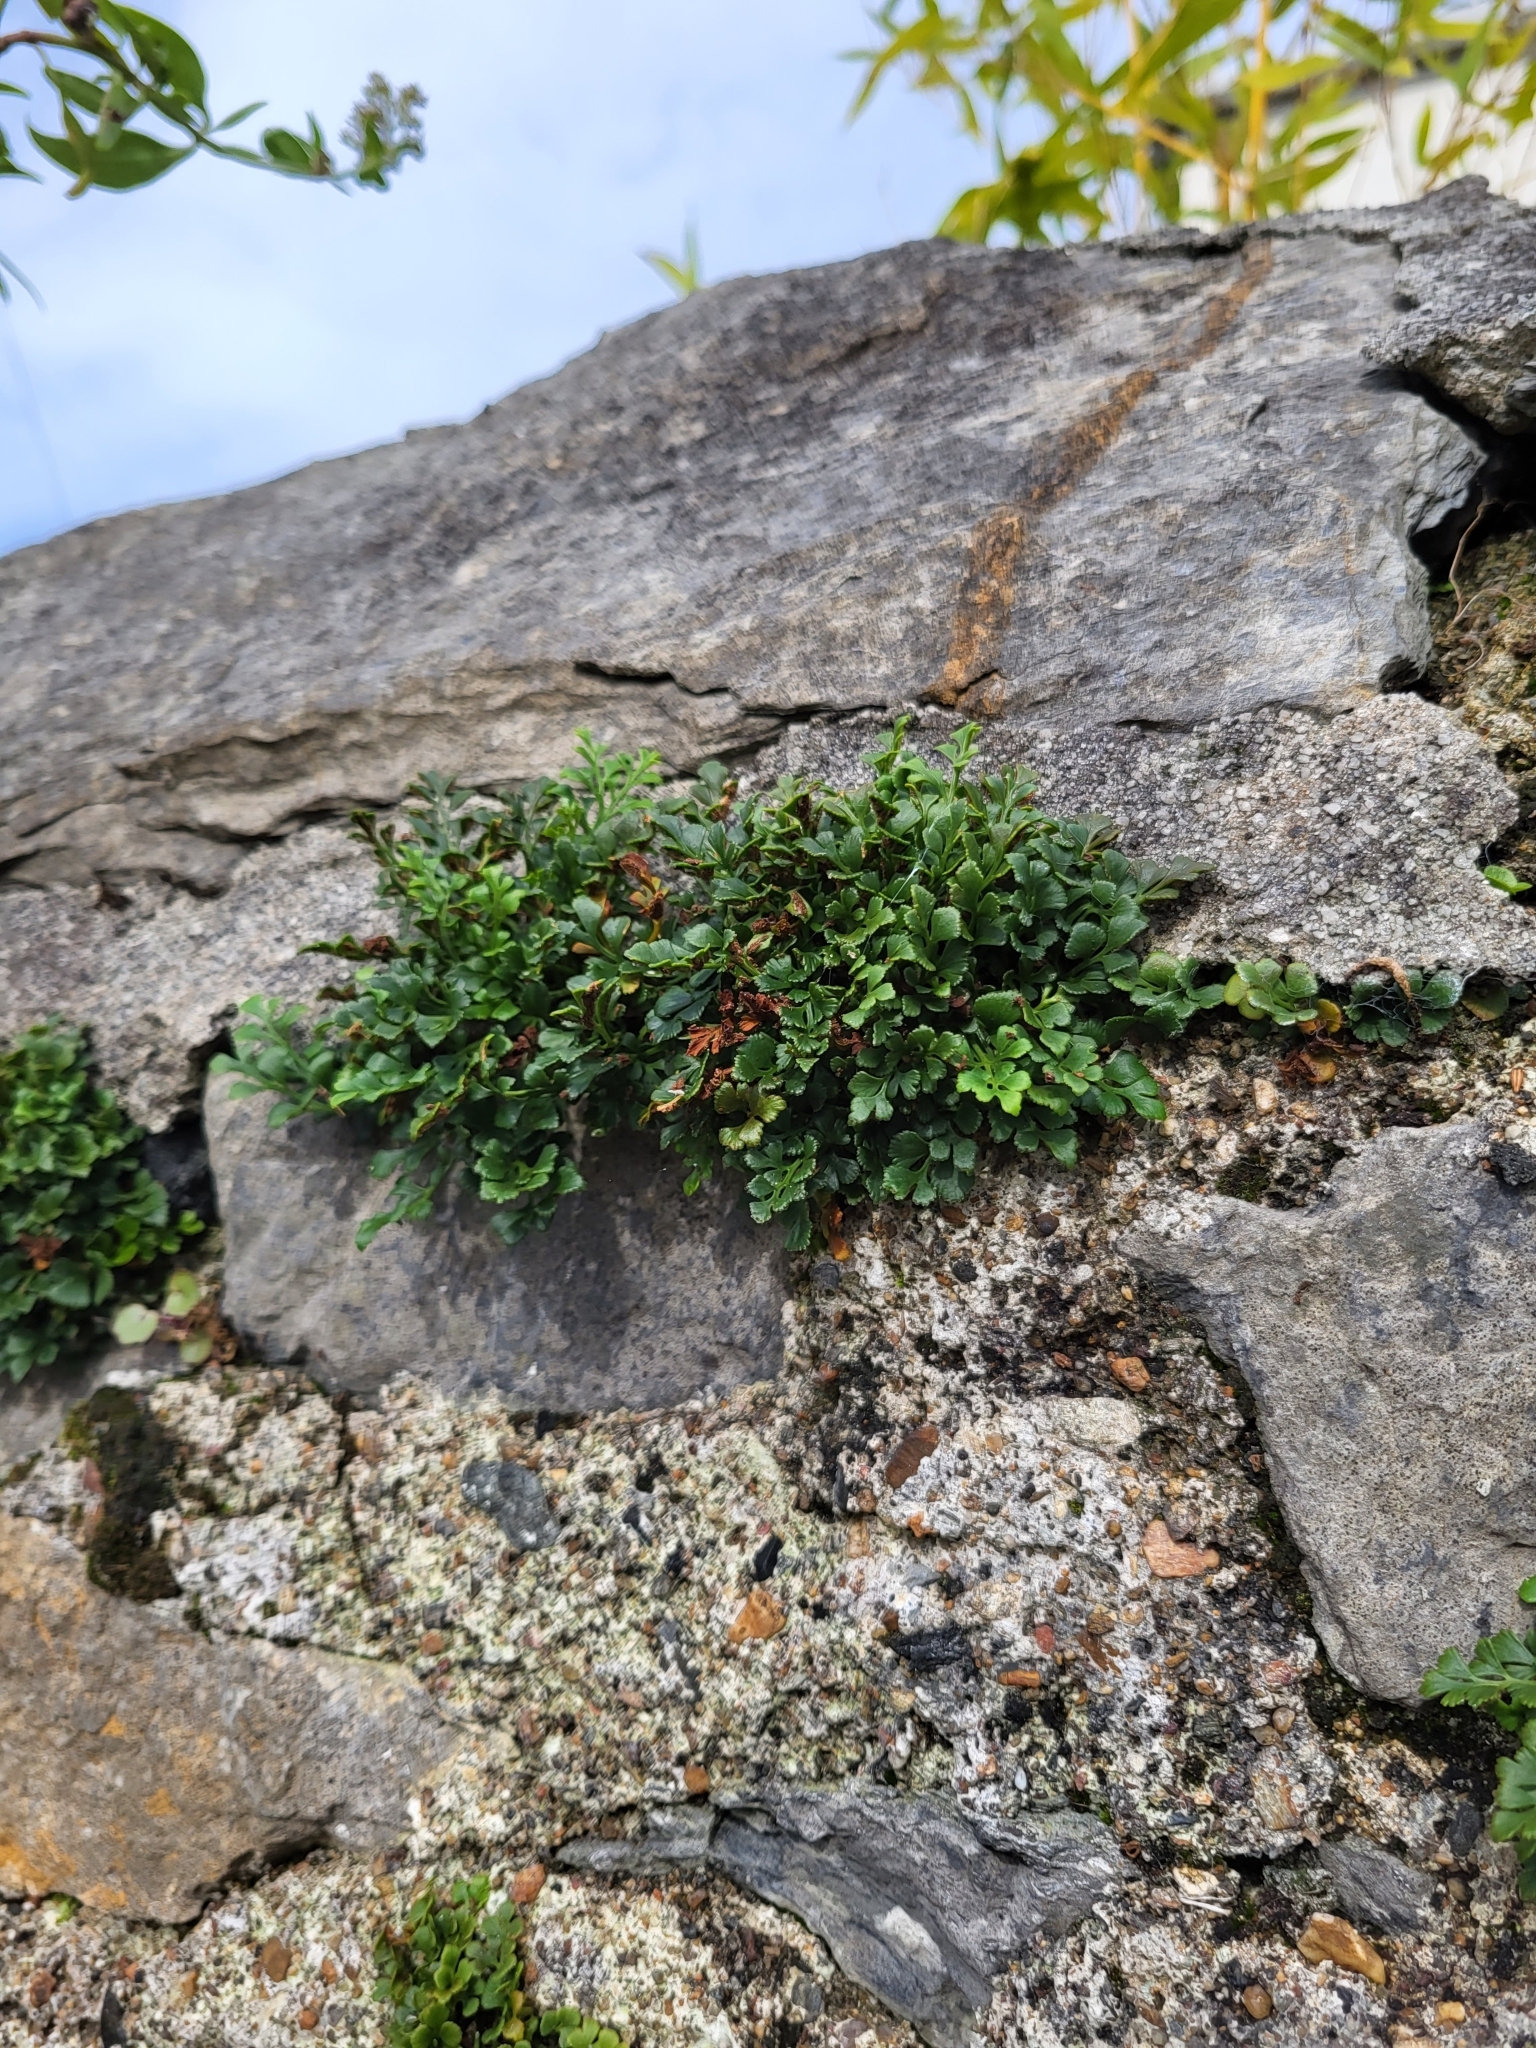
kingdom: Plantae
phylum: Tracheophyta
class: Polypodiopsida
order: Polypodiales
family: Aspleniaceae
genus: Asplenium
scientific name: Asplenium ruta-muraria
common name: Wall-rue
